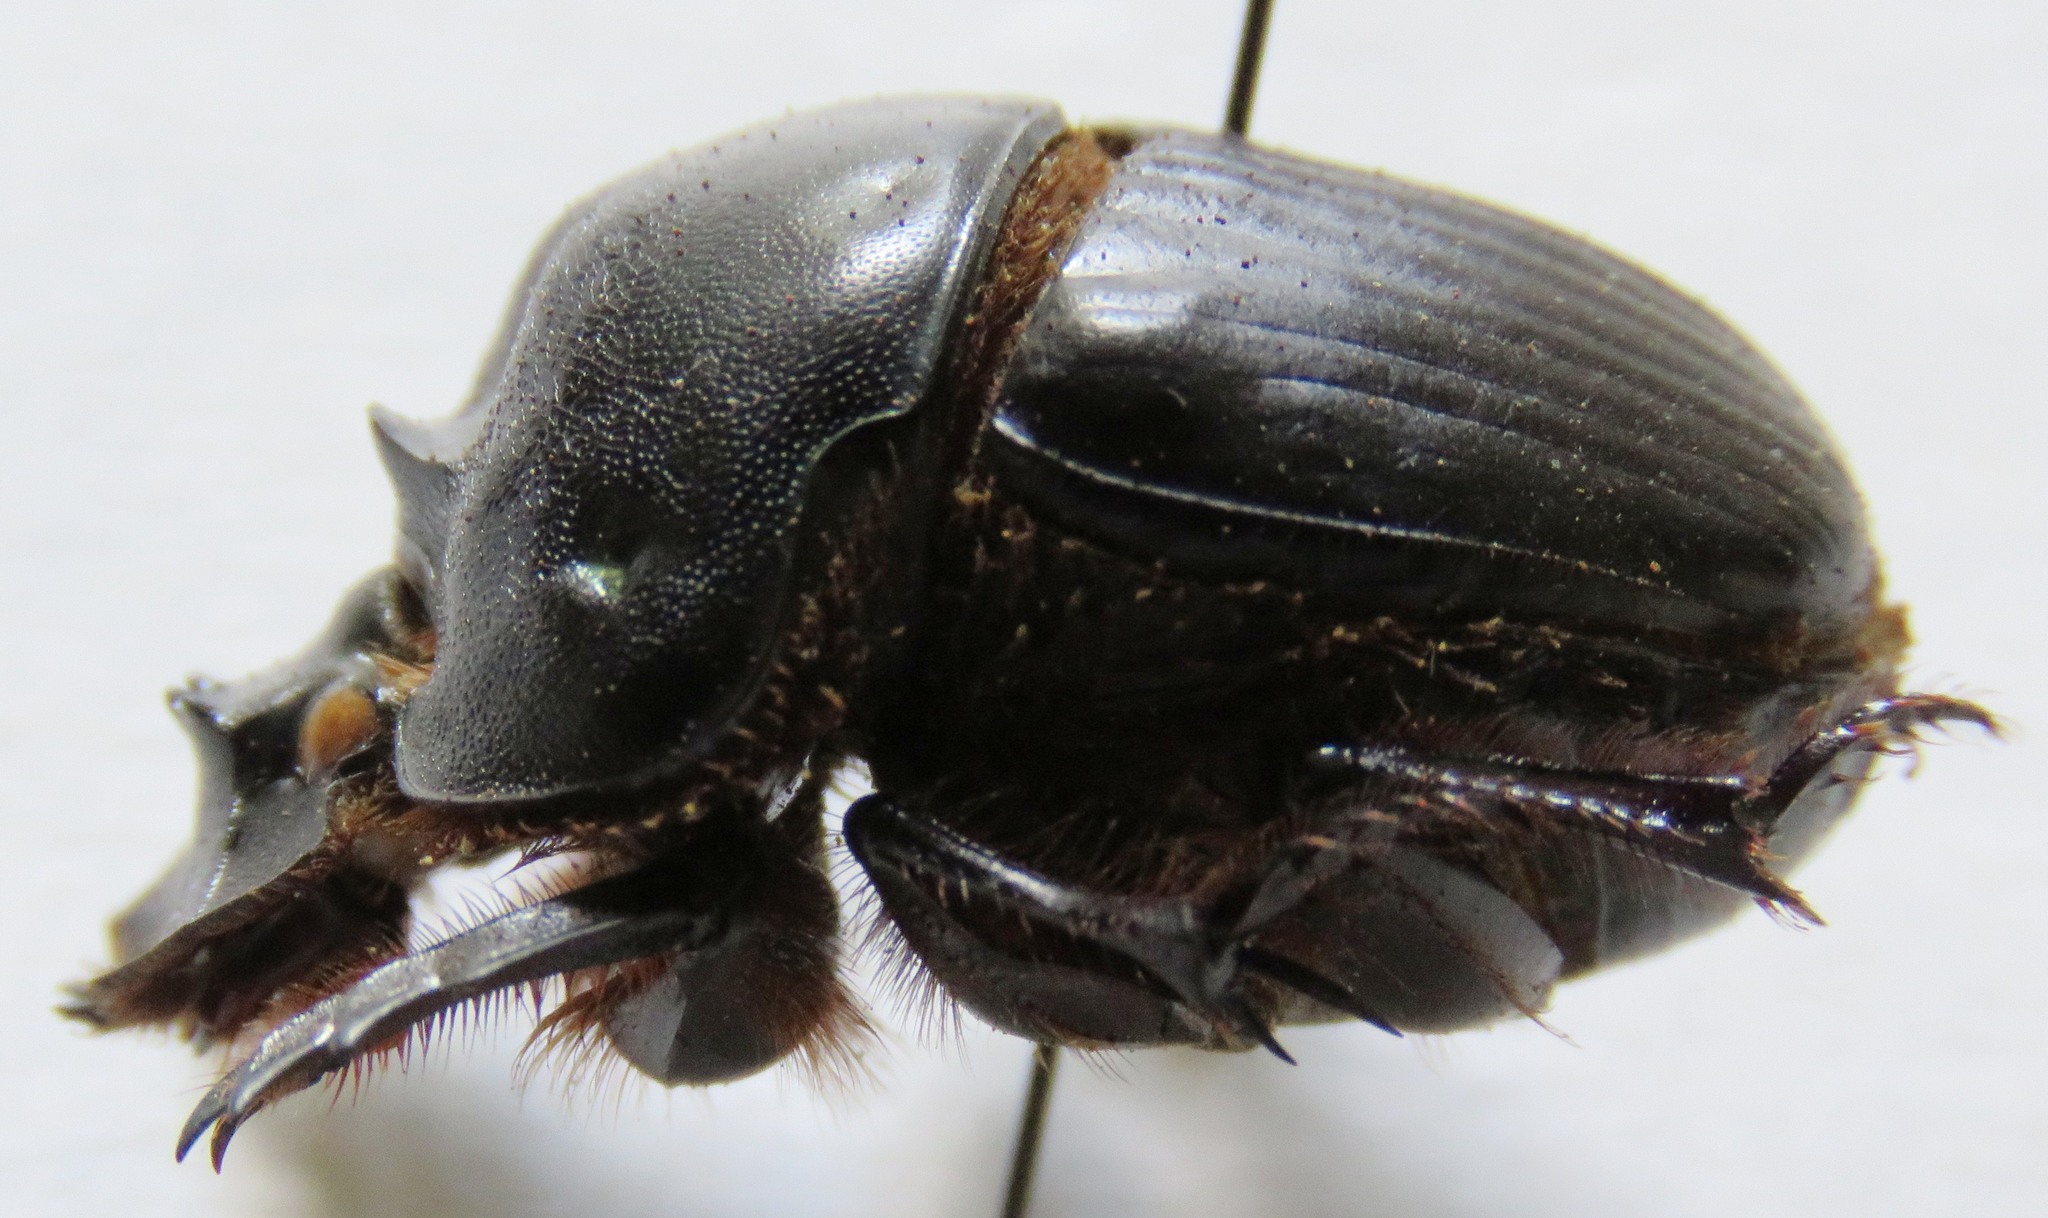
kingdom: Animalia
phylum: Arthropoda
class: Insecta
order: Coleoptera
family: Scarabaeidae
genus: Coprophanaeus
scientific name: Coprophanaeus corythus
